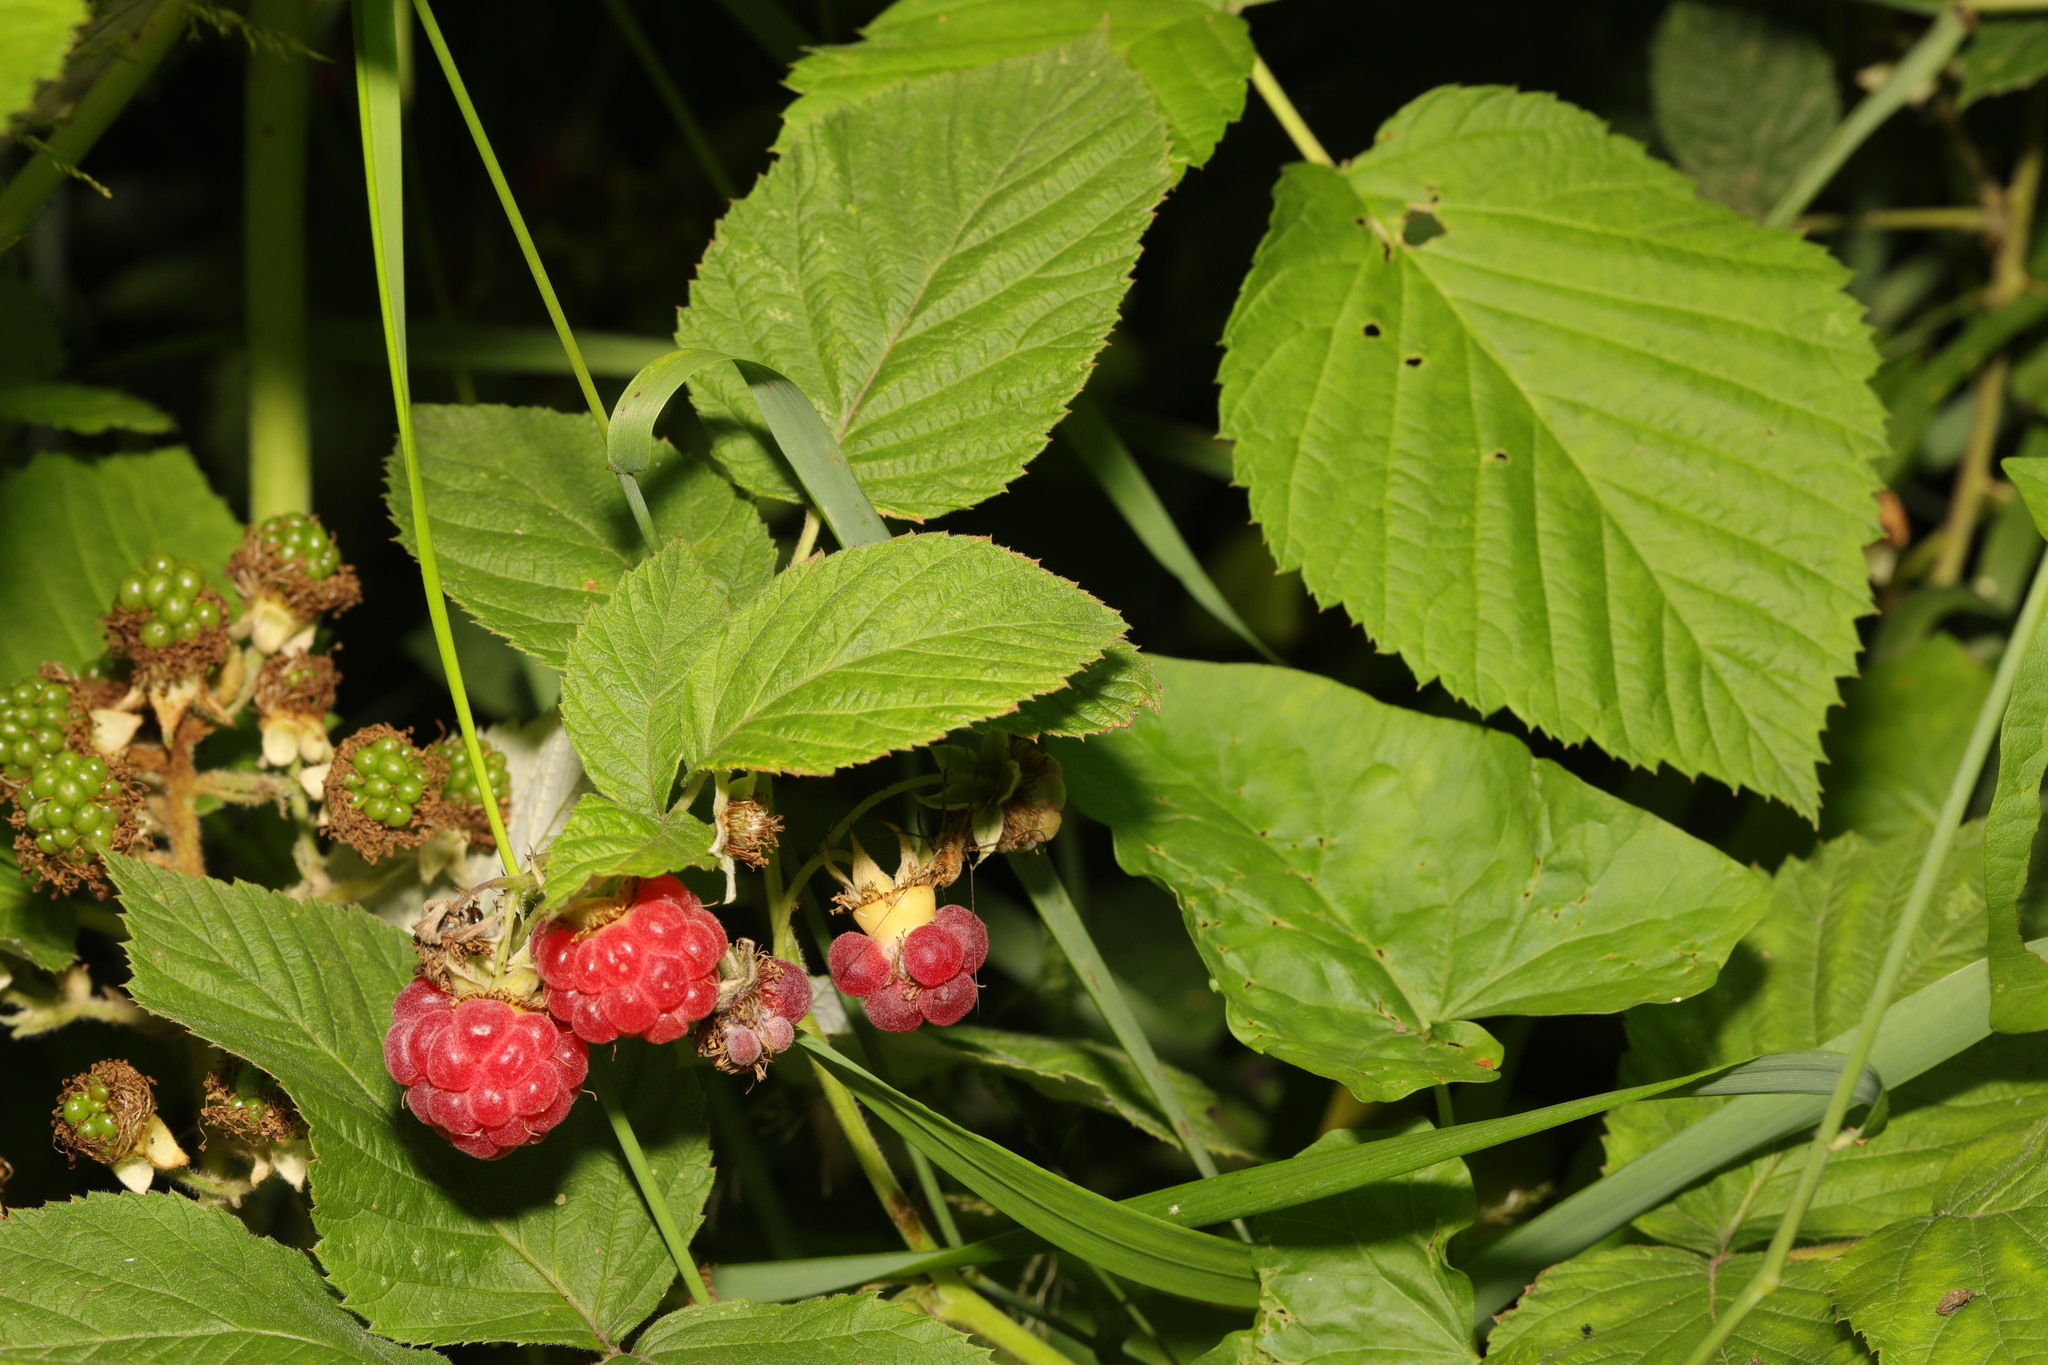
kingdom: Plantae
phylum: Tracheophyta
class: Magnoliopsida
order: Rosales
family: Rosaceae
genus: Rubus
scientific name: Rubus idaeus
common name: Raspberry
